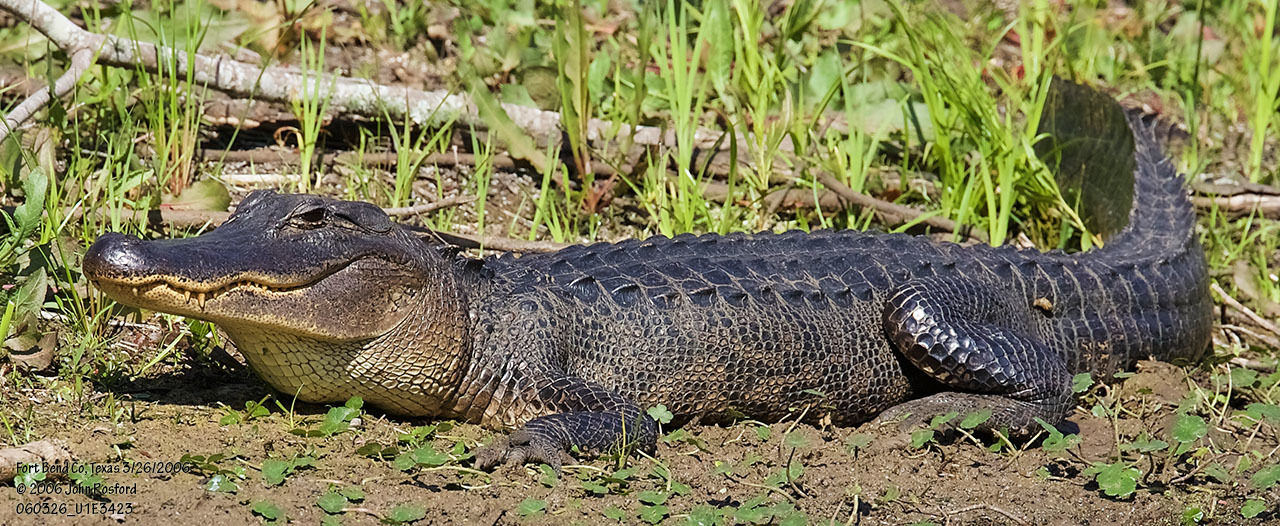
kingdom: Animalia
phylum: Chordata
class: Crocodylia
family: Alligatoridae
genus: Alligator
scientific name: Alligator mississippiensis
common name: American alligator
